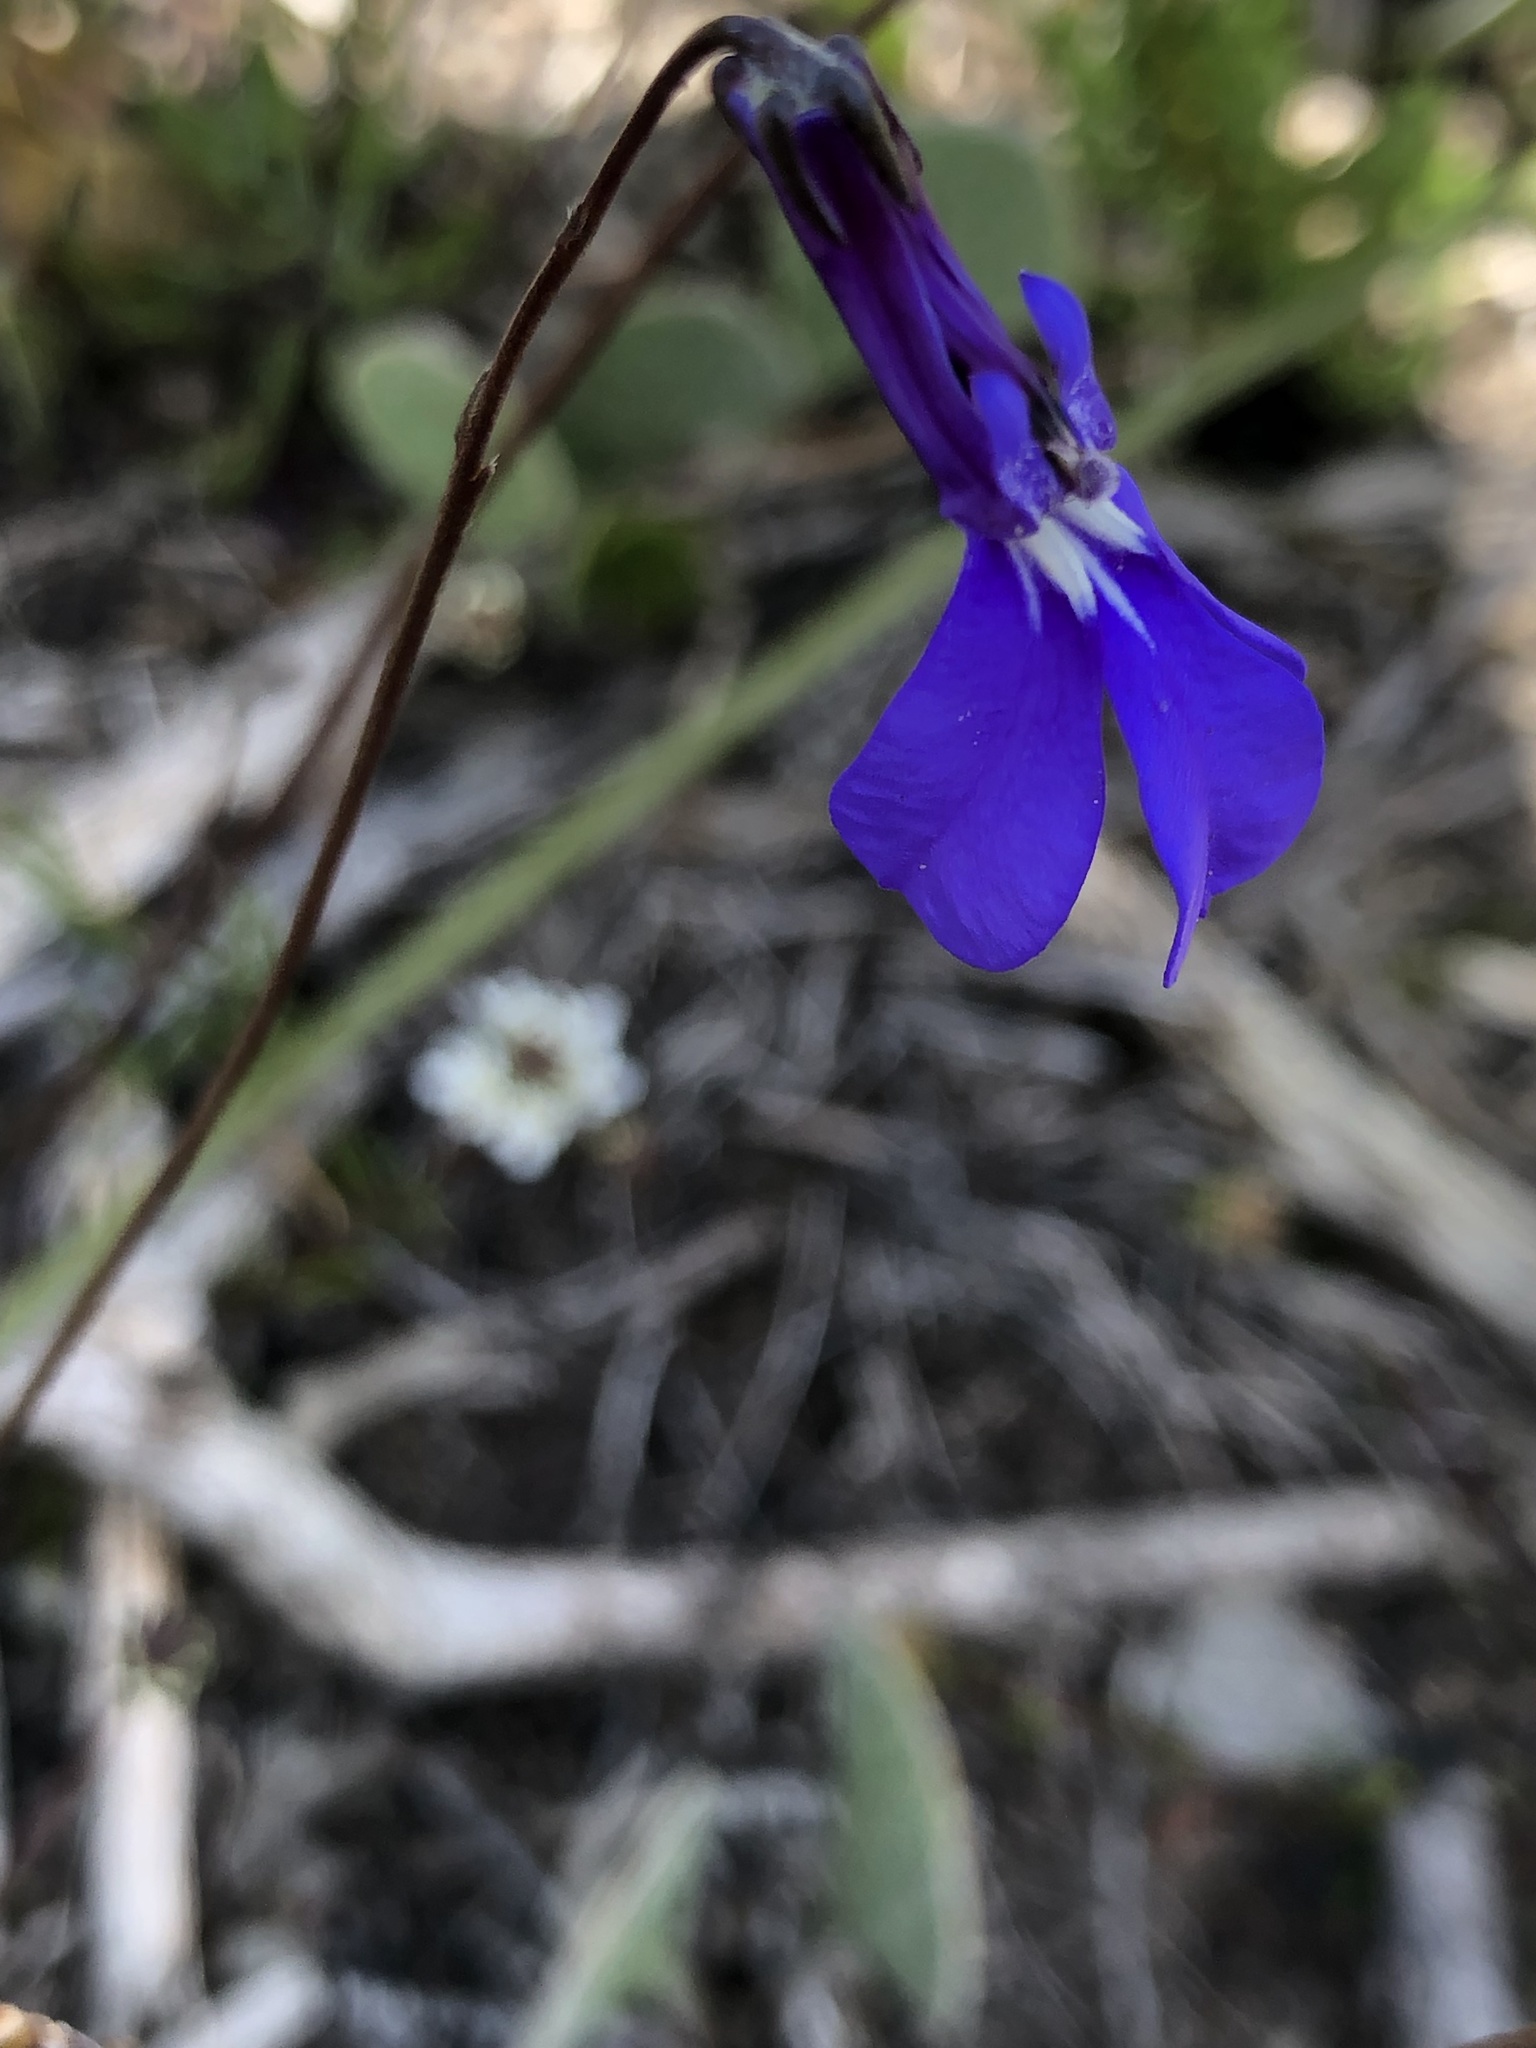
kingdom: Plantae
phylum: Tracheophyta
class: Magnoliopsida
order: Asterales
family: Campanulaceae
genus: Lobelia
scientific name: Lobelia chamaepitys
